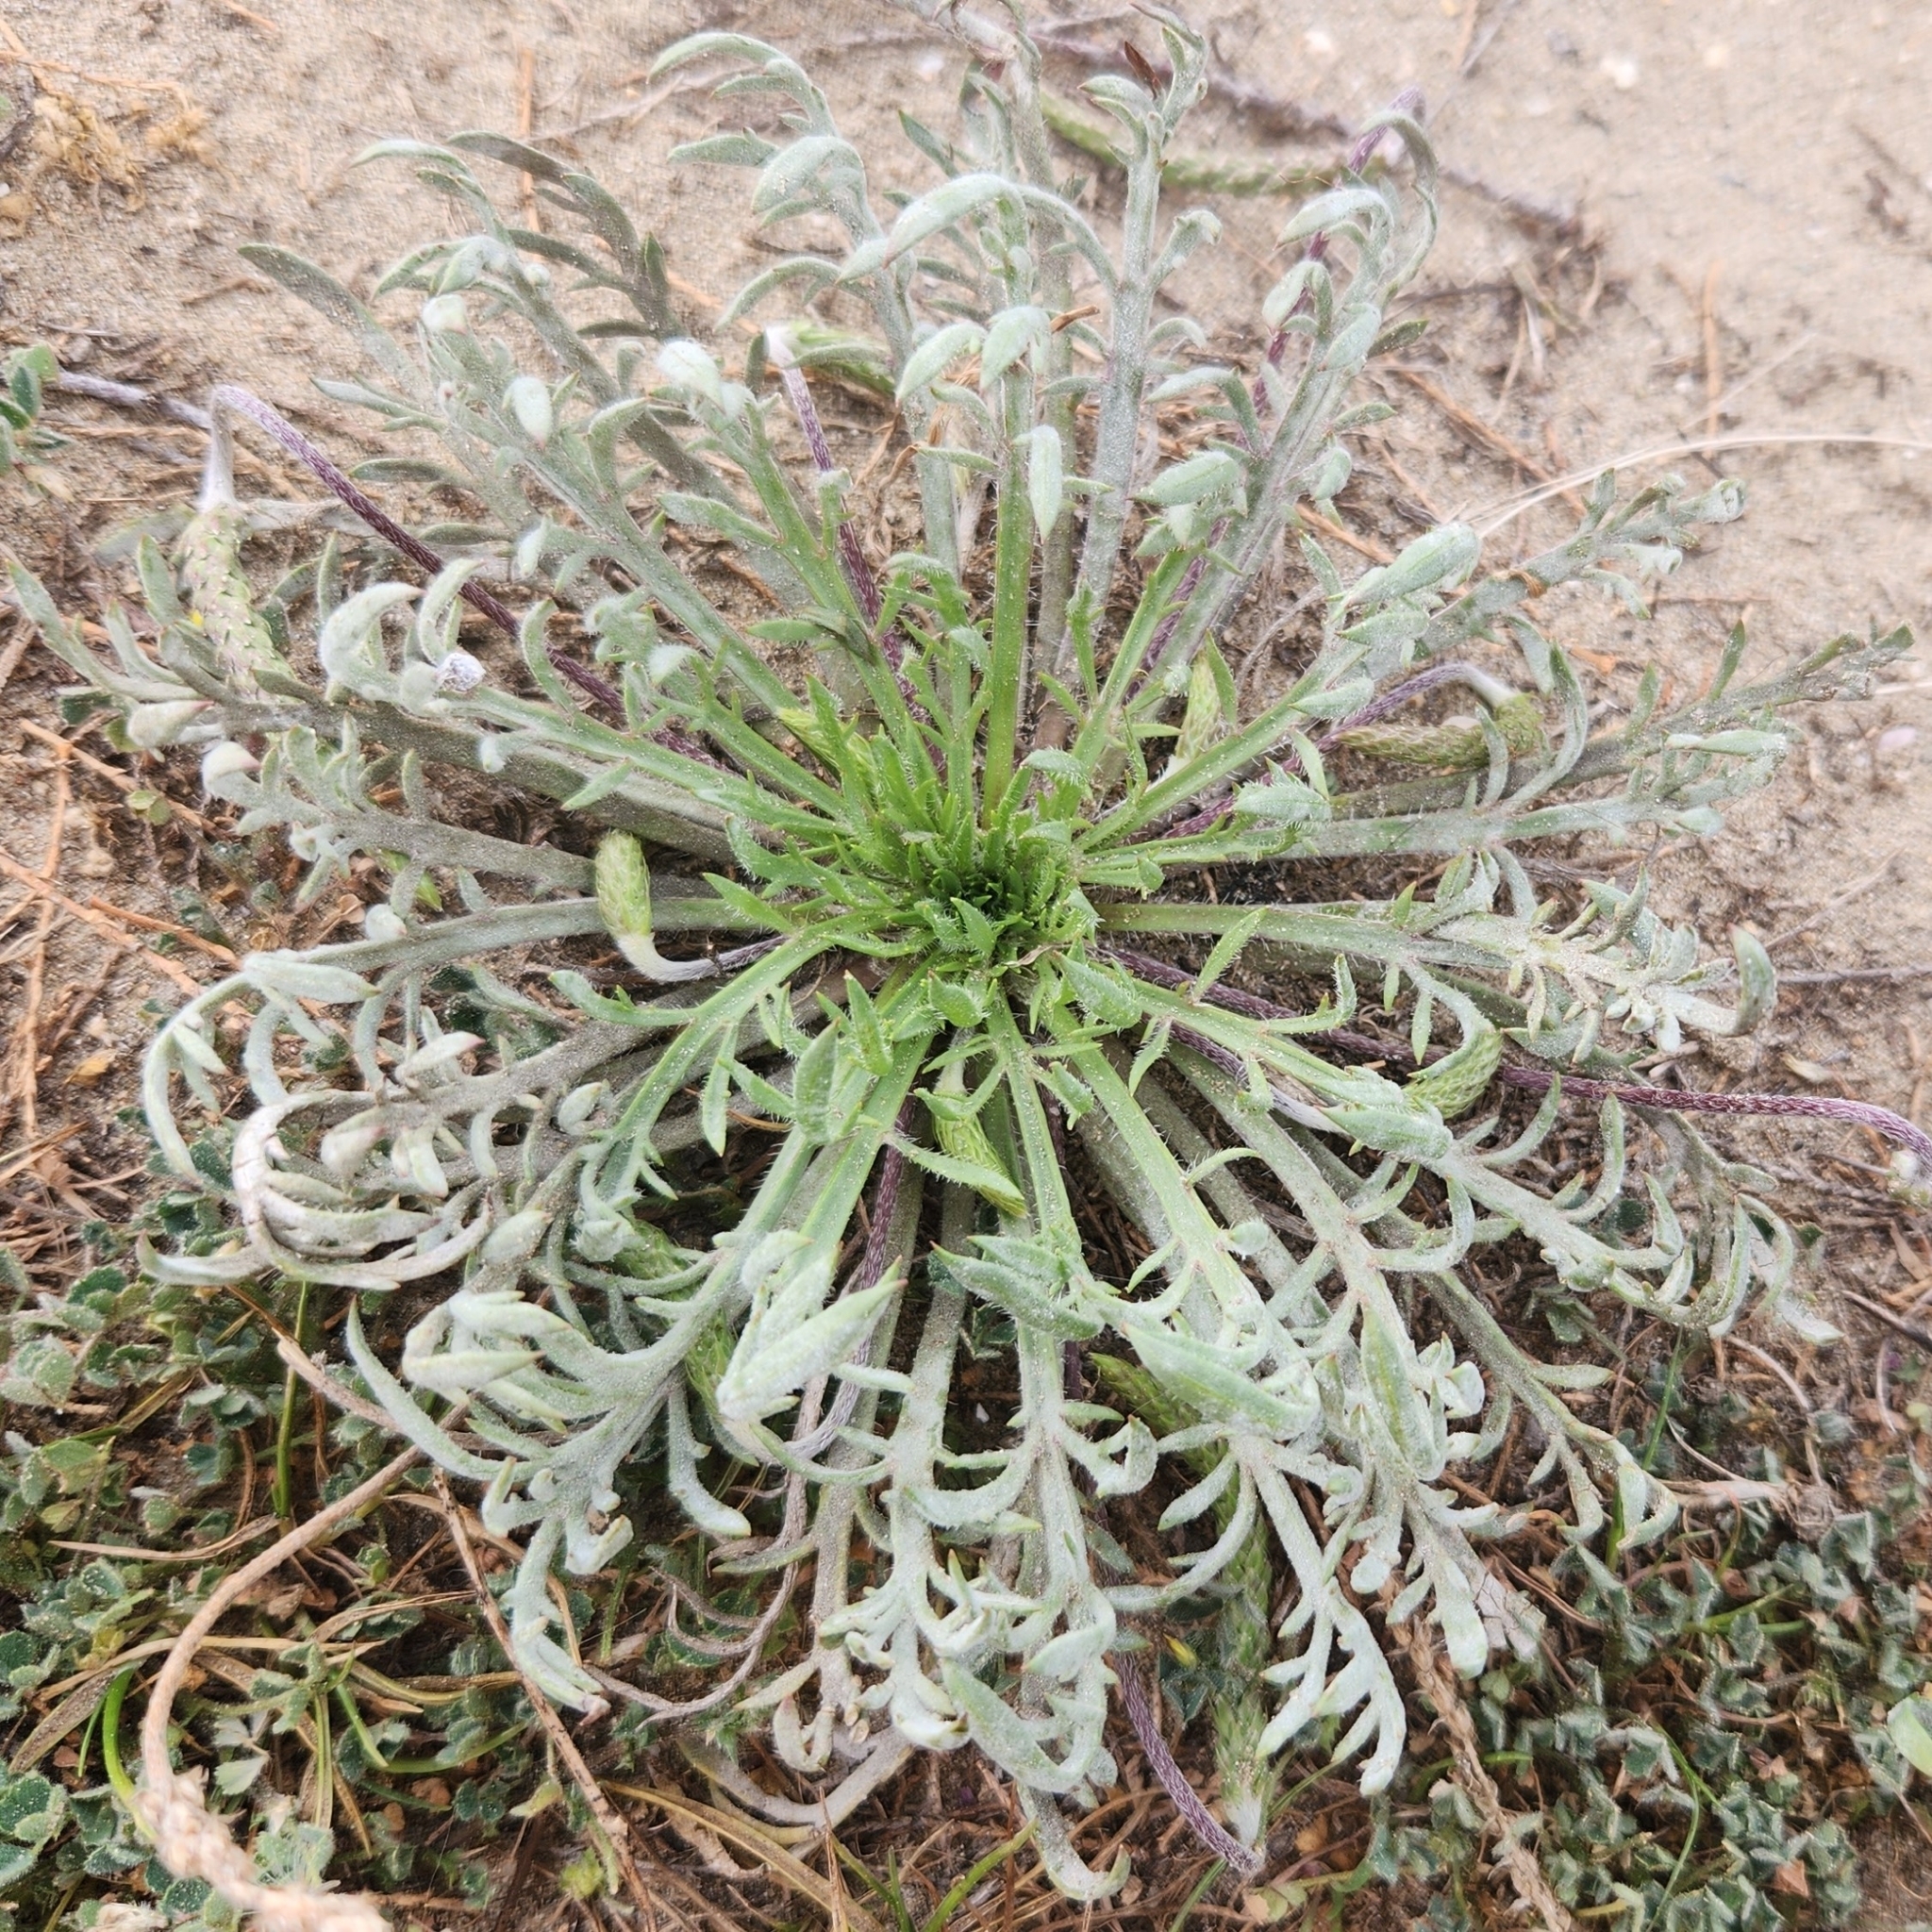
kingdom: Plantae
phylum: Tracheophyta
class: Magnoliopsida
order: Lamiales
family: Plantaginaceae
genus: Plantago
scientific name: Plantago coronopus
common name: Buck's-horn plantain
